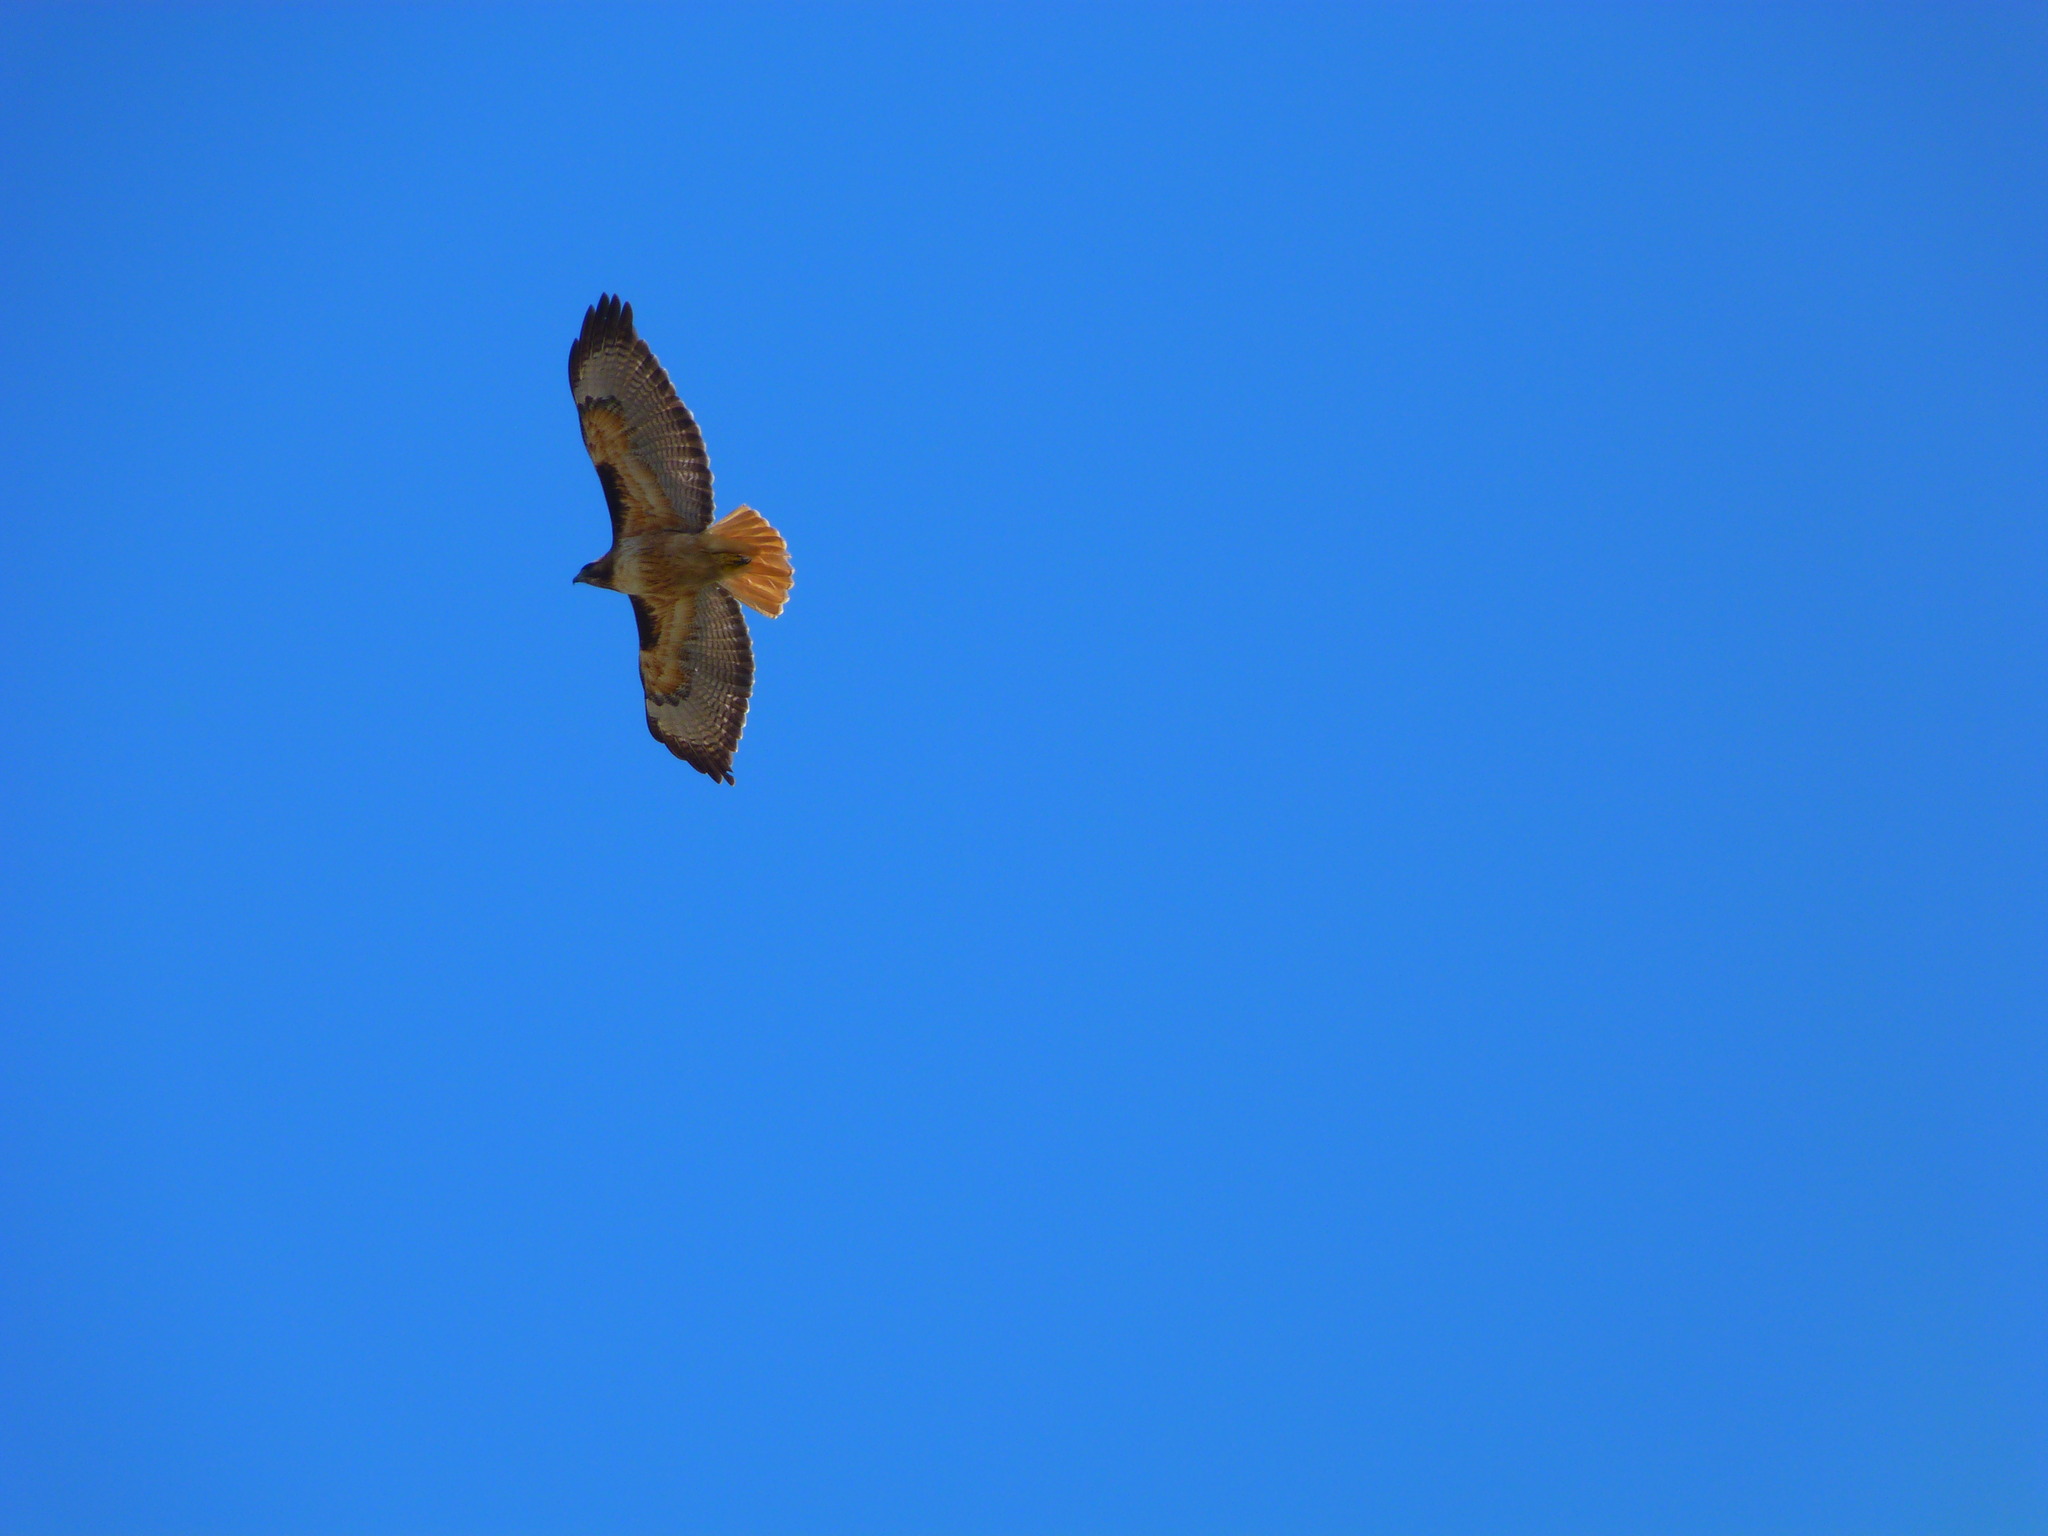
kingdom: Animalia
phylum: Chordata
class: Aves
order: Accipitriformes
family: Accipitridae
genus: Buteo
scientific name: Buteo jamaicensis
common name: Red-tailed hawk
